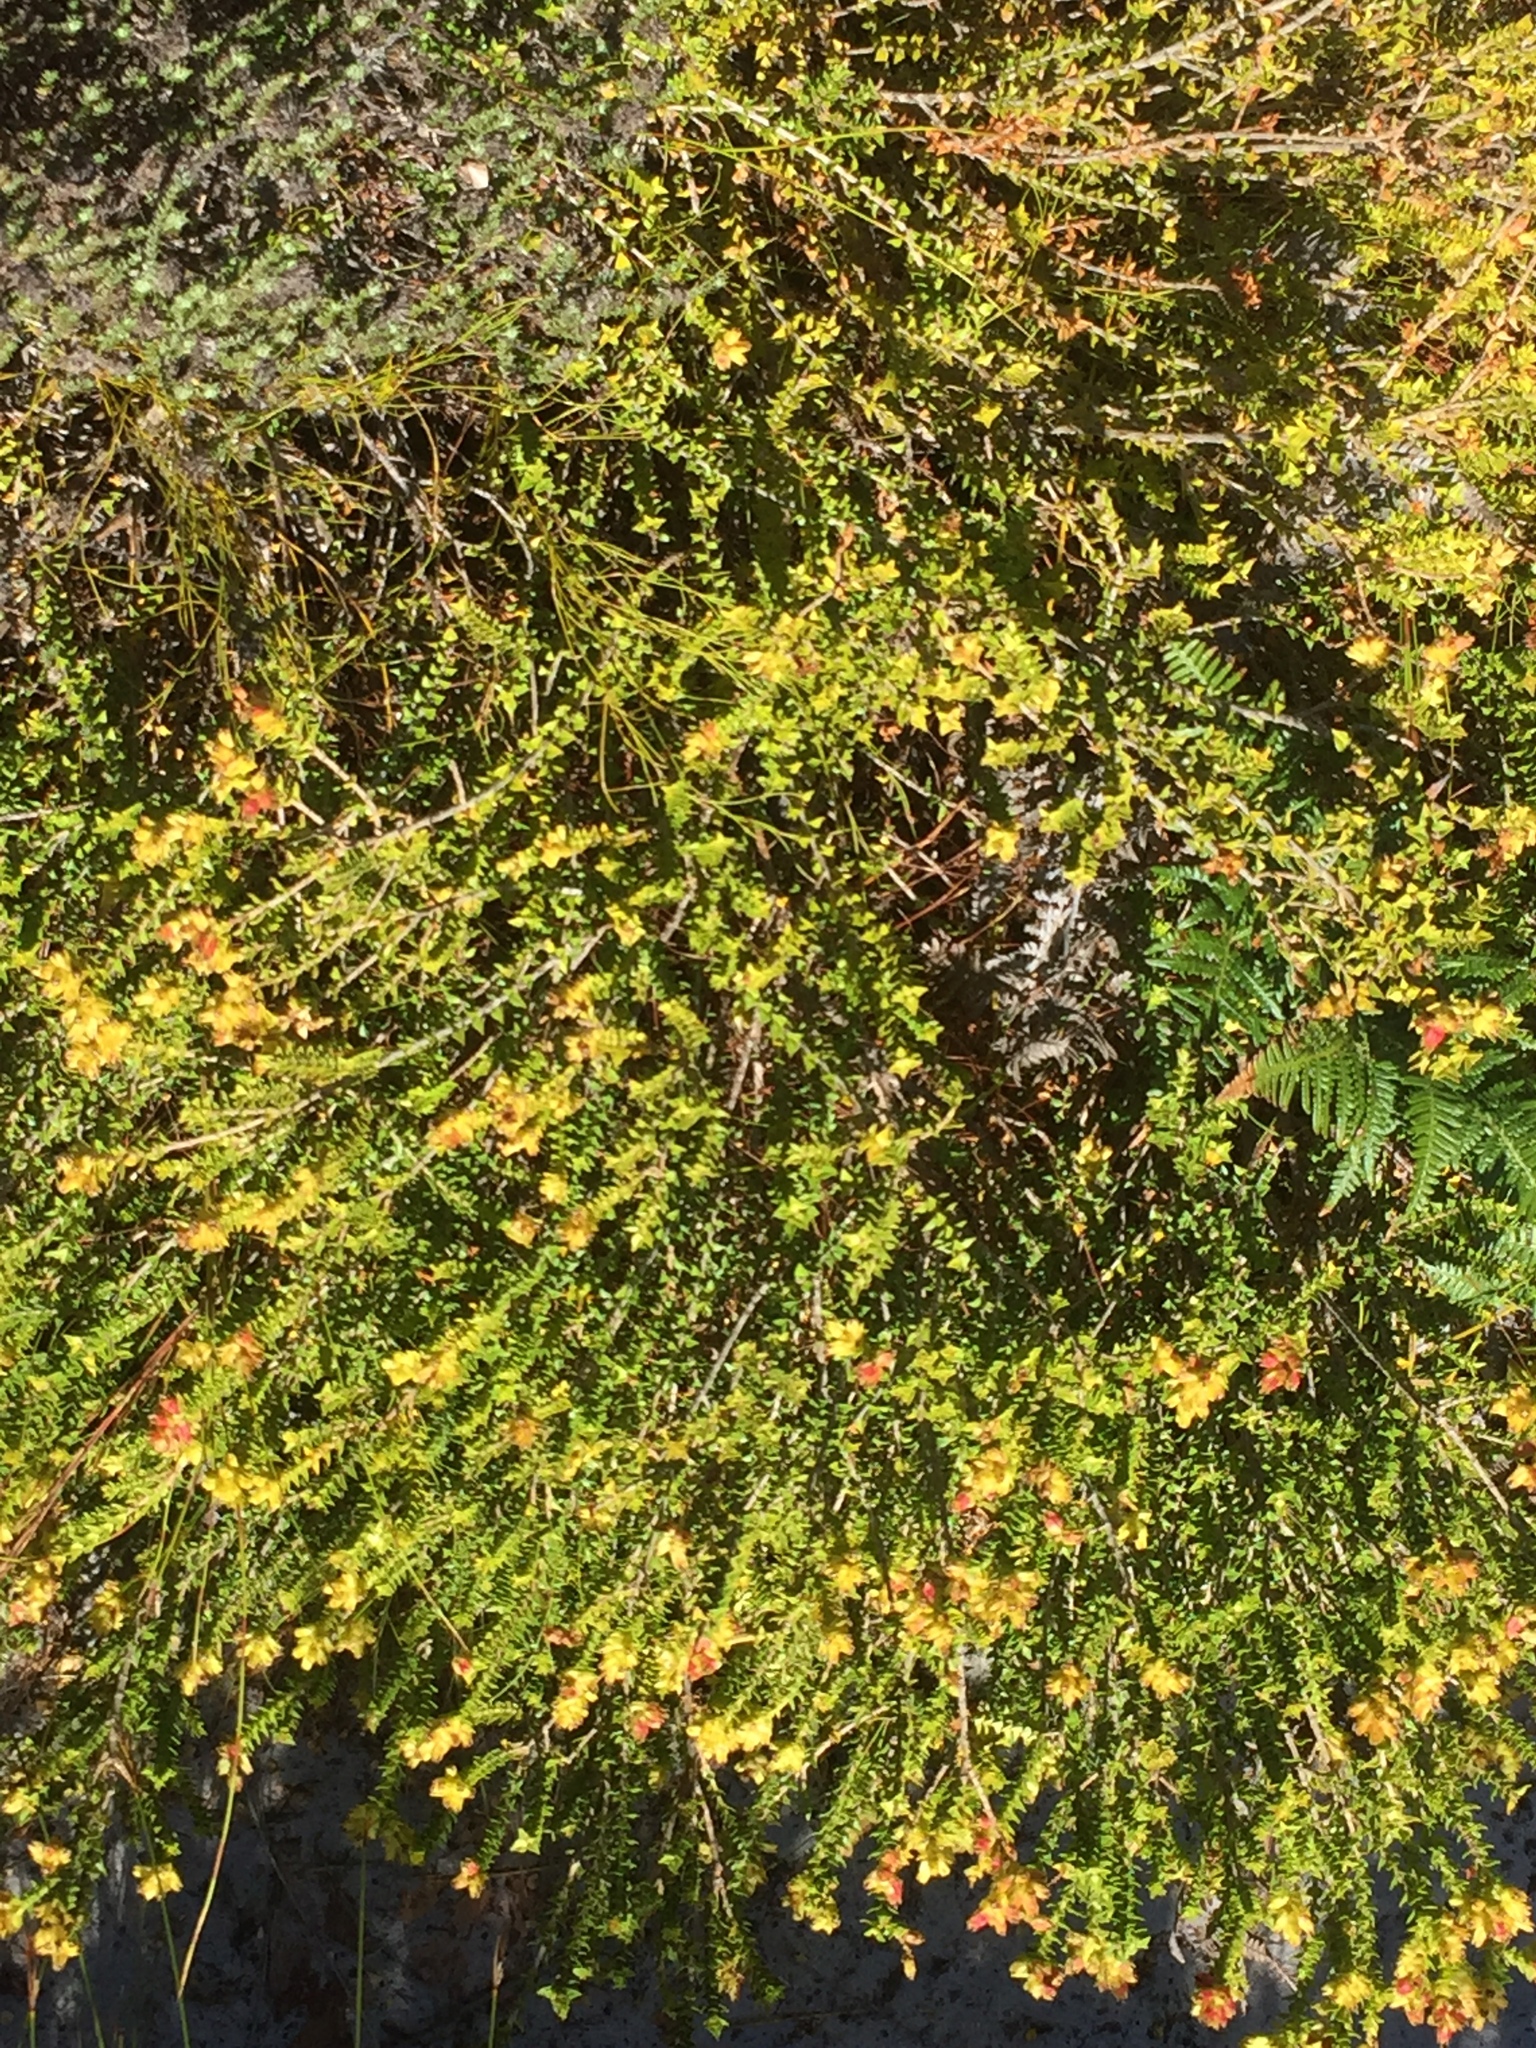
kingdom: Plantae
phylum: Tracheophyta
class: Magnoliopsida
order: Myrtales
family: Penaeaceae
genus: Penaea
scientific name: Penaea mucronata
